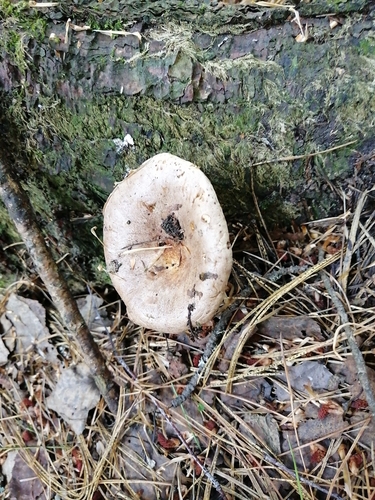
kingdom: Fungi
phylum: Basidiomycota
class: Agaricomycetes
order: Russulales
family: Russulaceae
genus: Lactarius
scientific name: Lactarius trivialis
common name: Tacked milkcap
